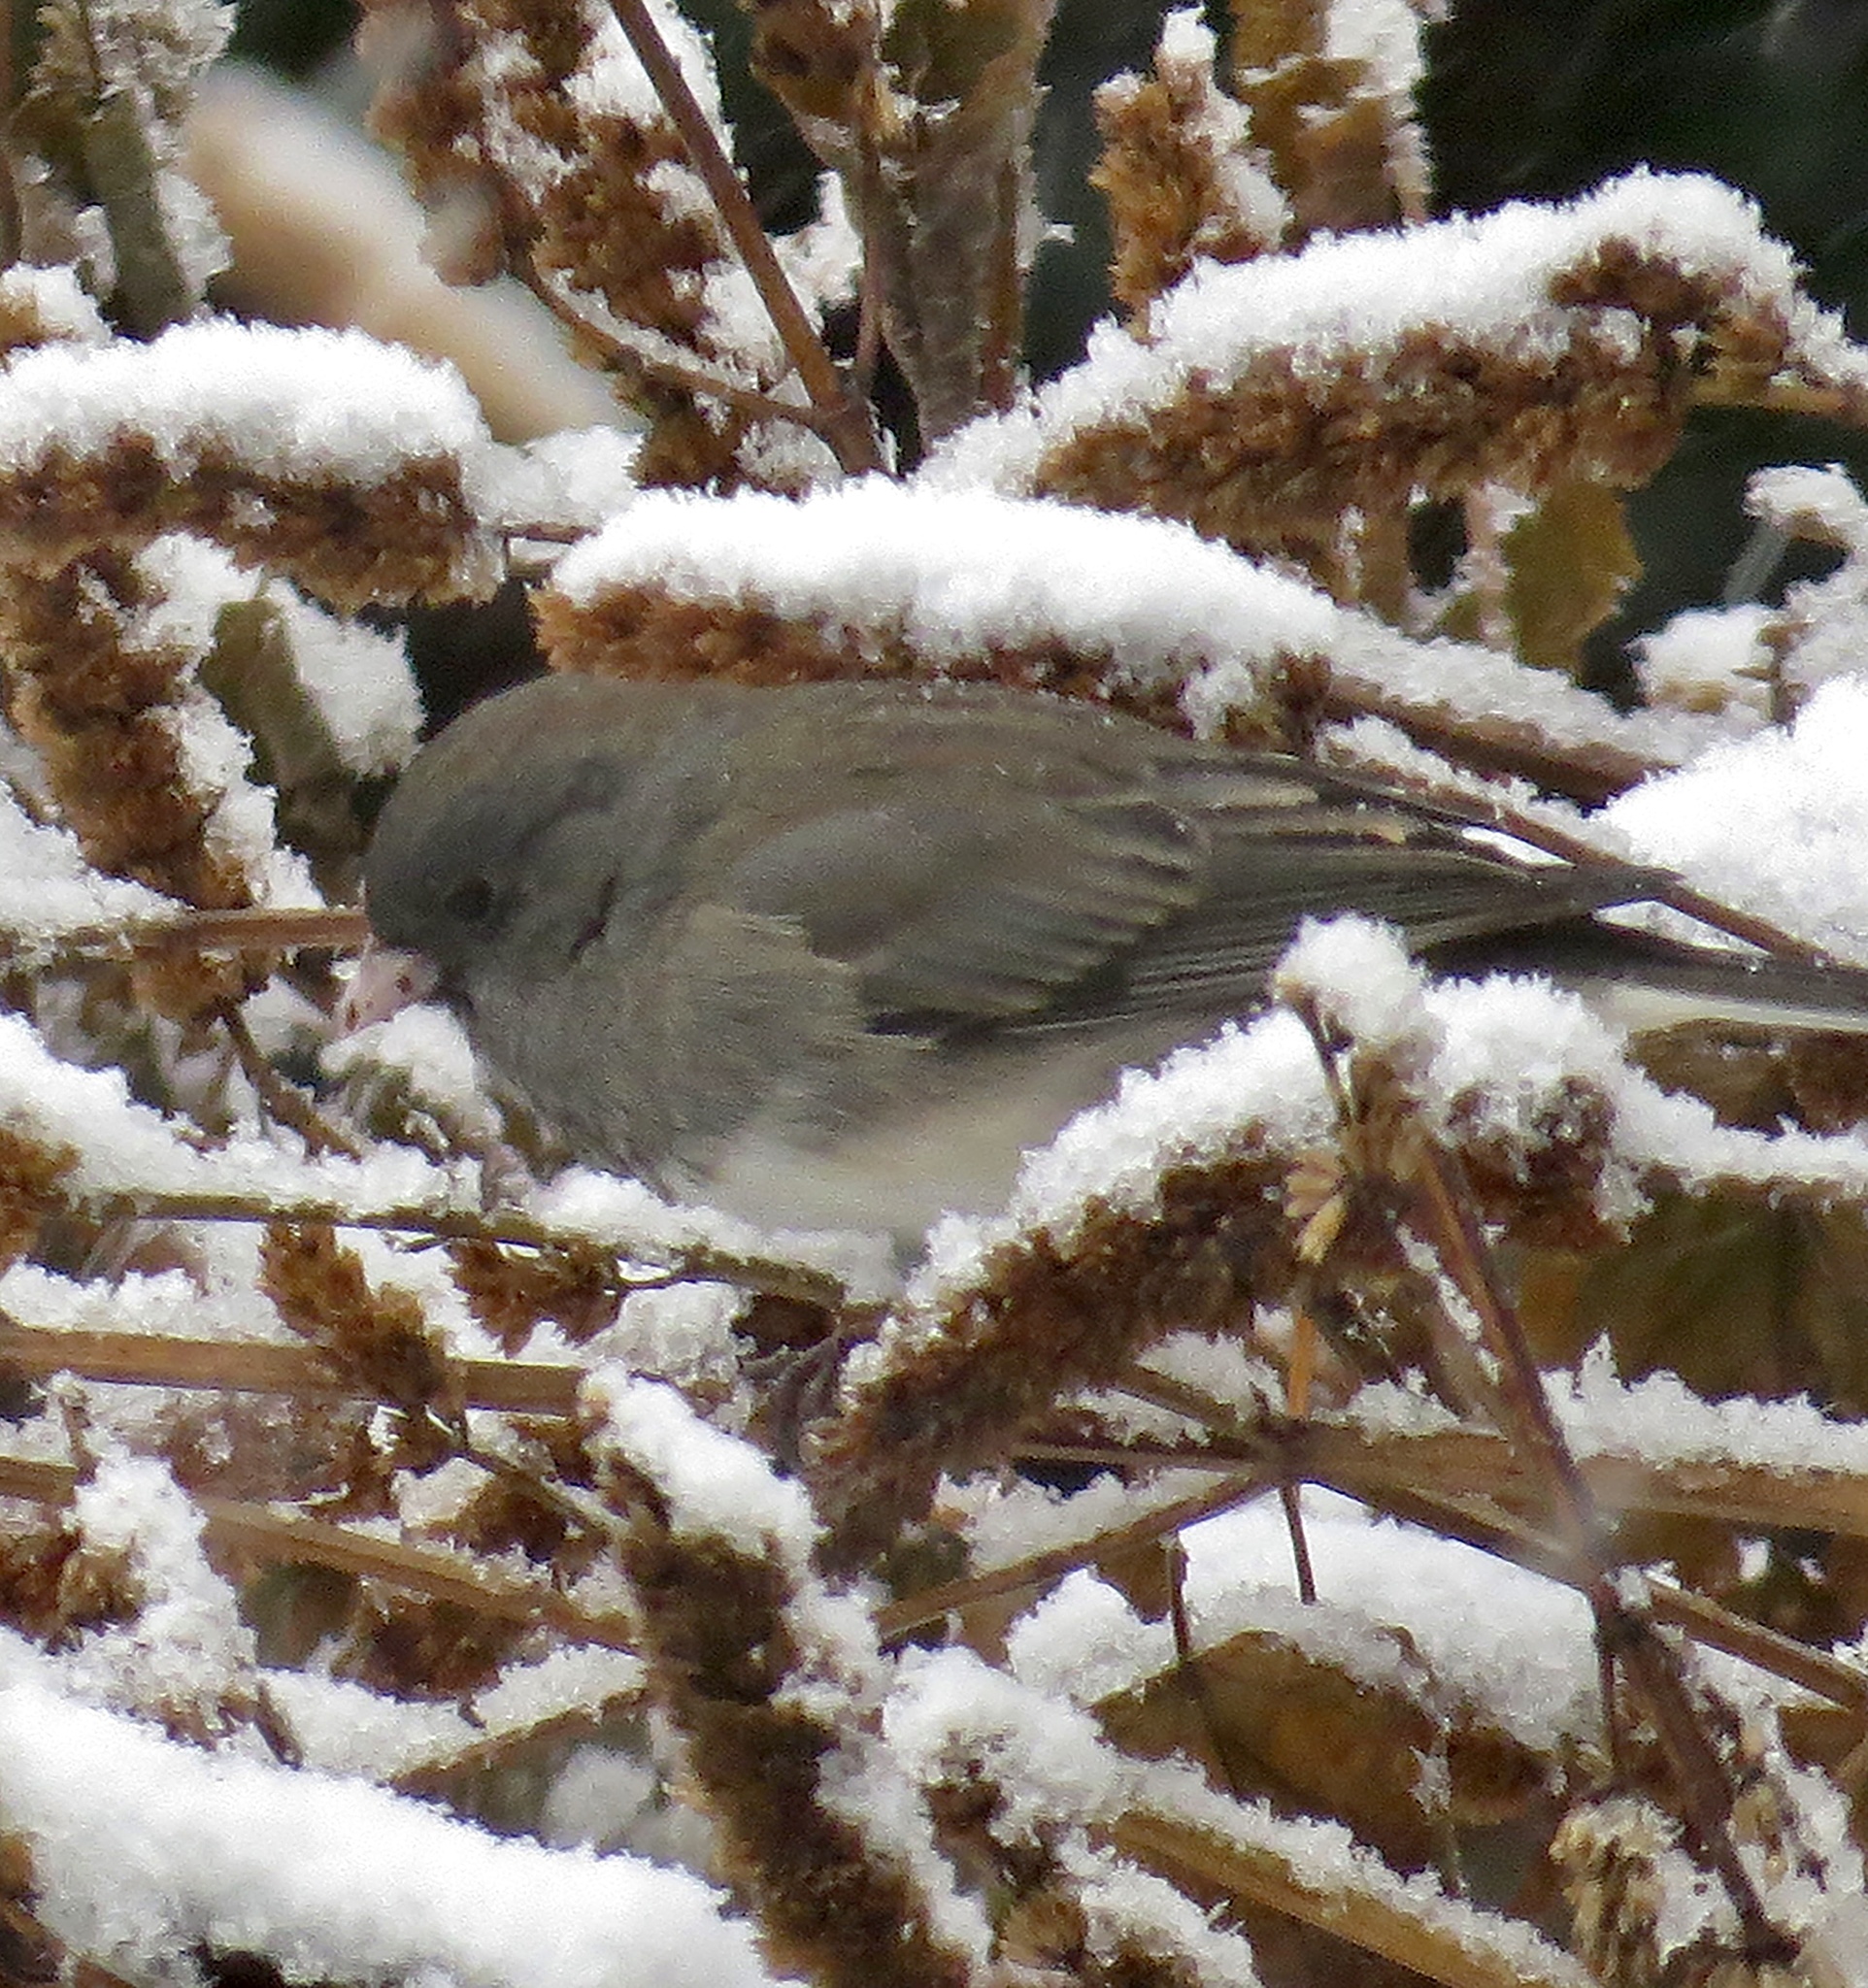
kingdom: Animalia
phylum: Chordata
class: Aves
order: Passeriformes
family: Passerellidae
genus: Junco
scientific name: Junco hyemalis
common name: Dark-eyed junco
